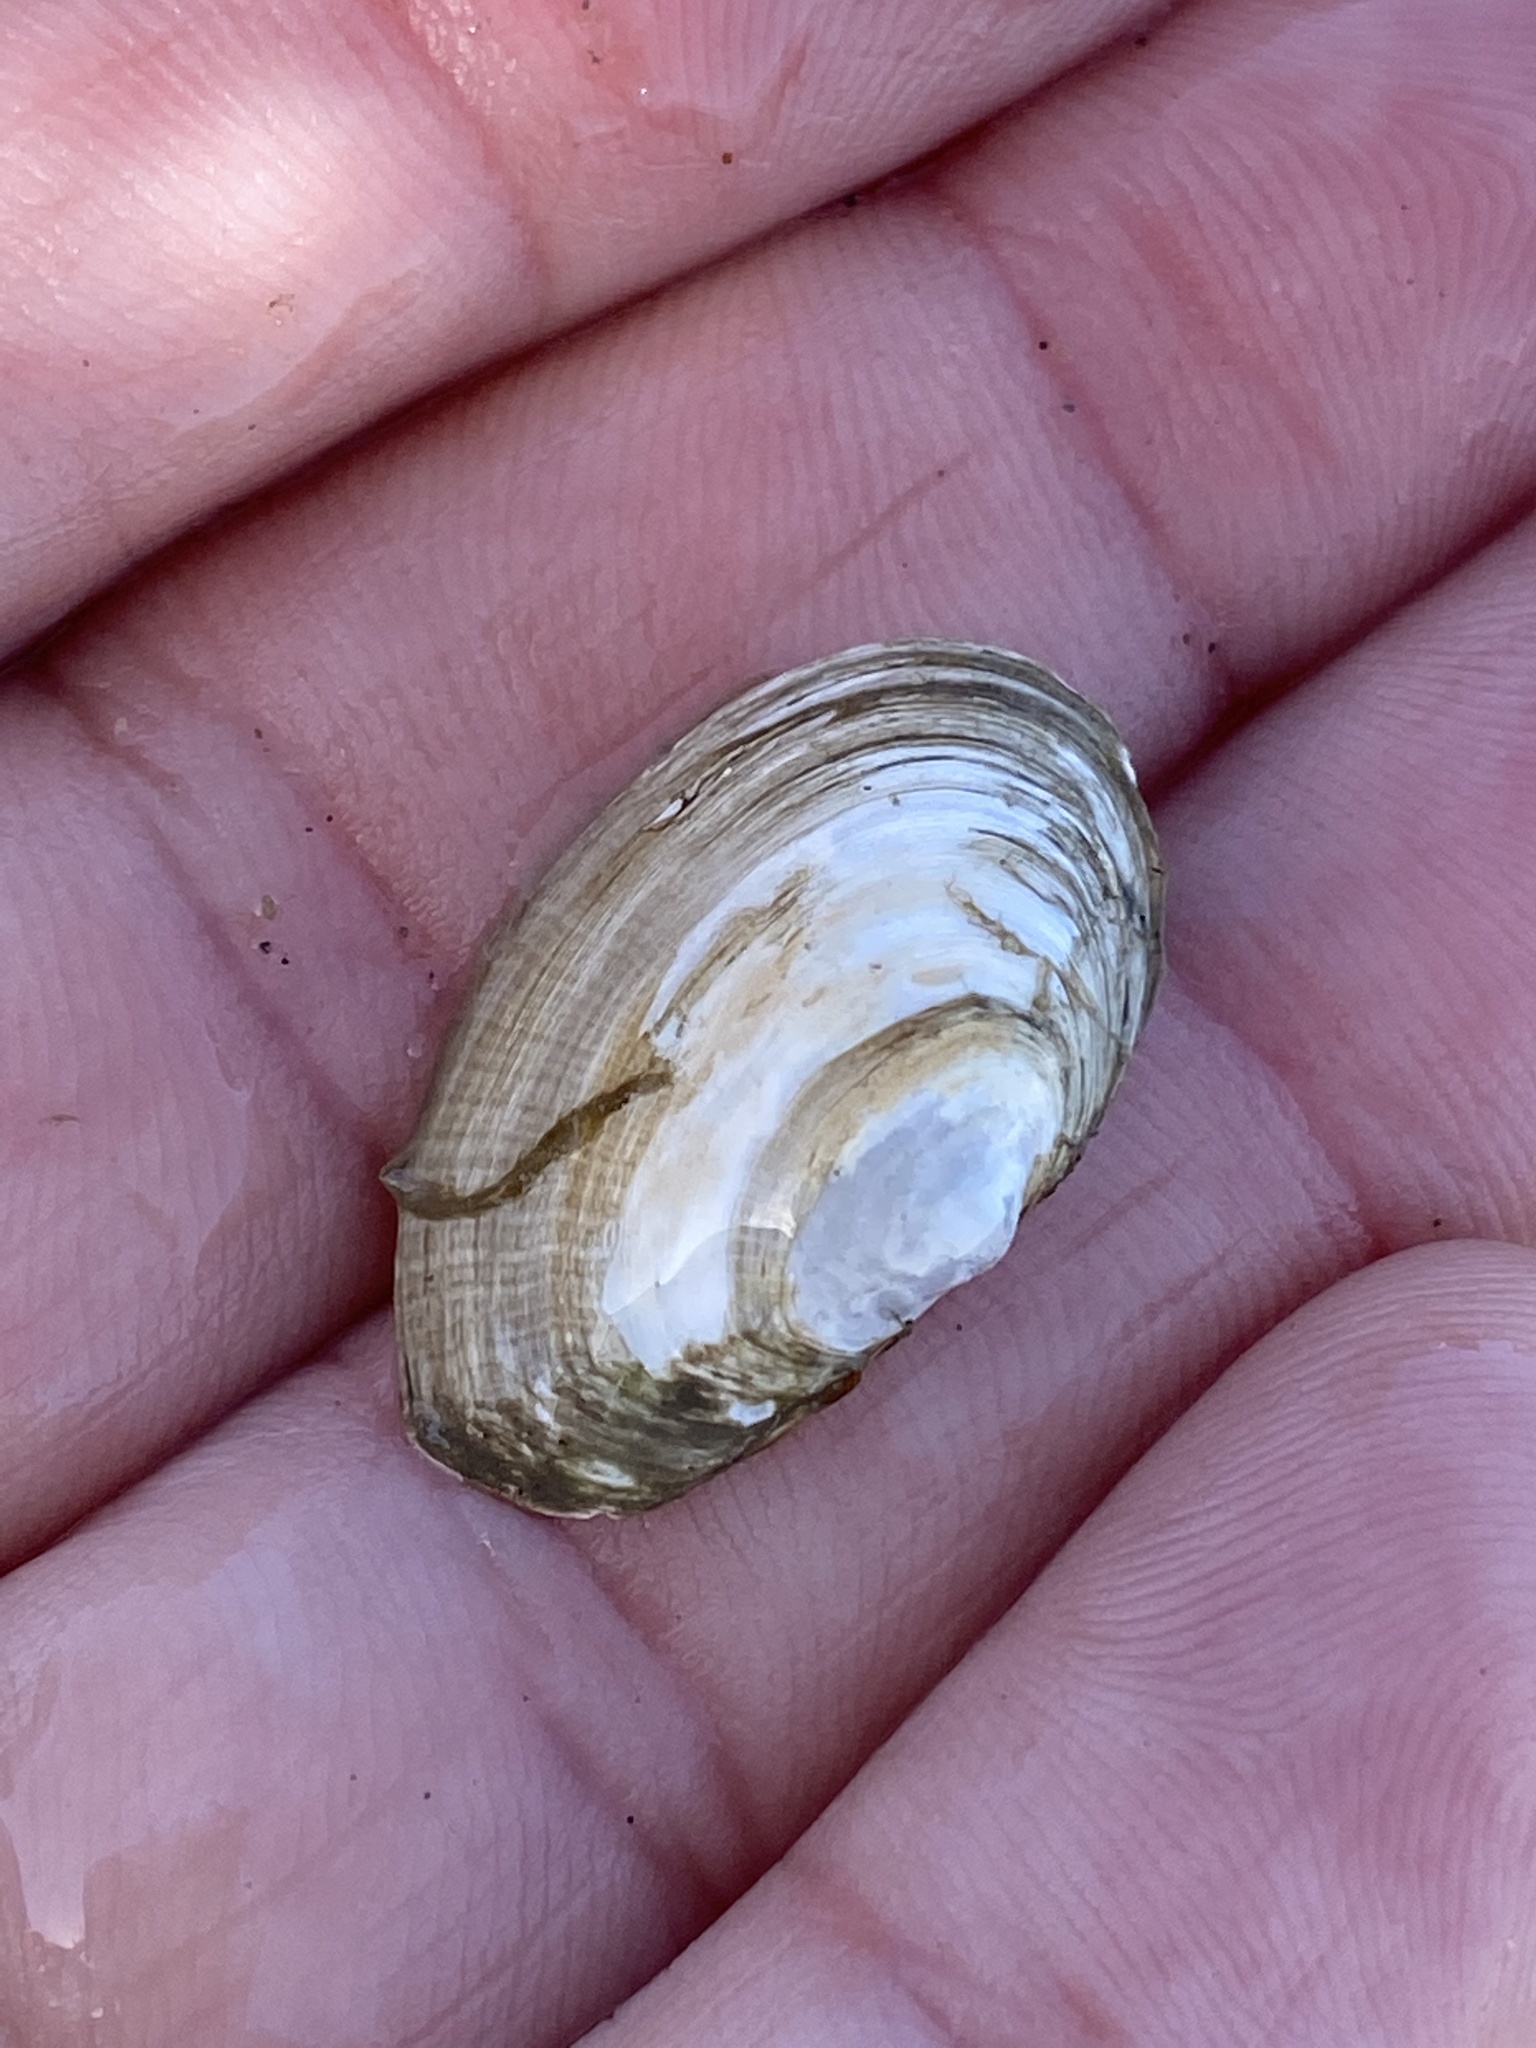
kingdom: Animalia
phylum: Mollusca
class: Bivalvia
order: Myida
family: Myidae
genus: Cryptomya
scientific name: Cryptomya californica
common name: California softshell clam
